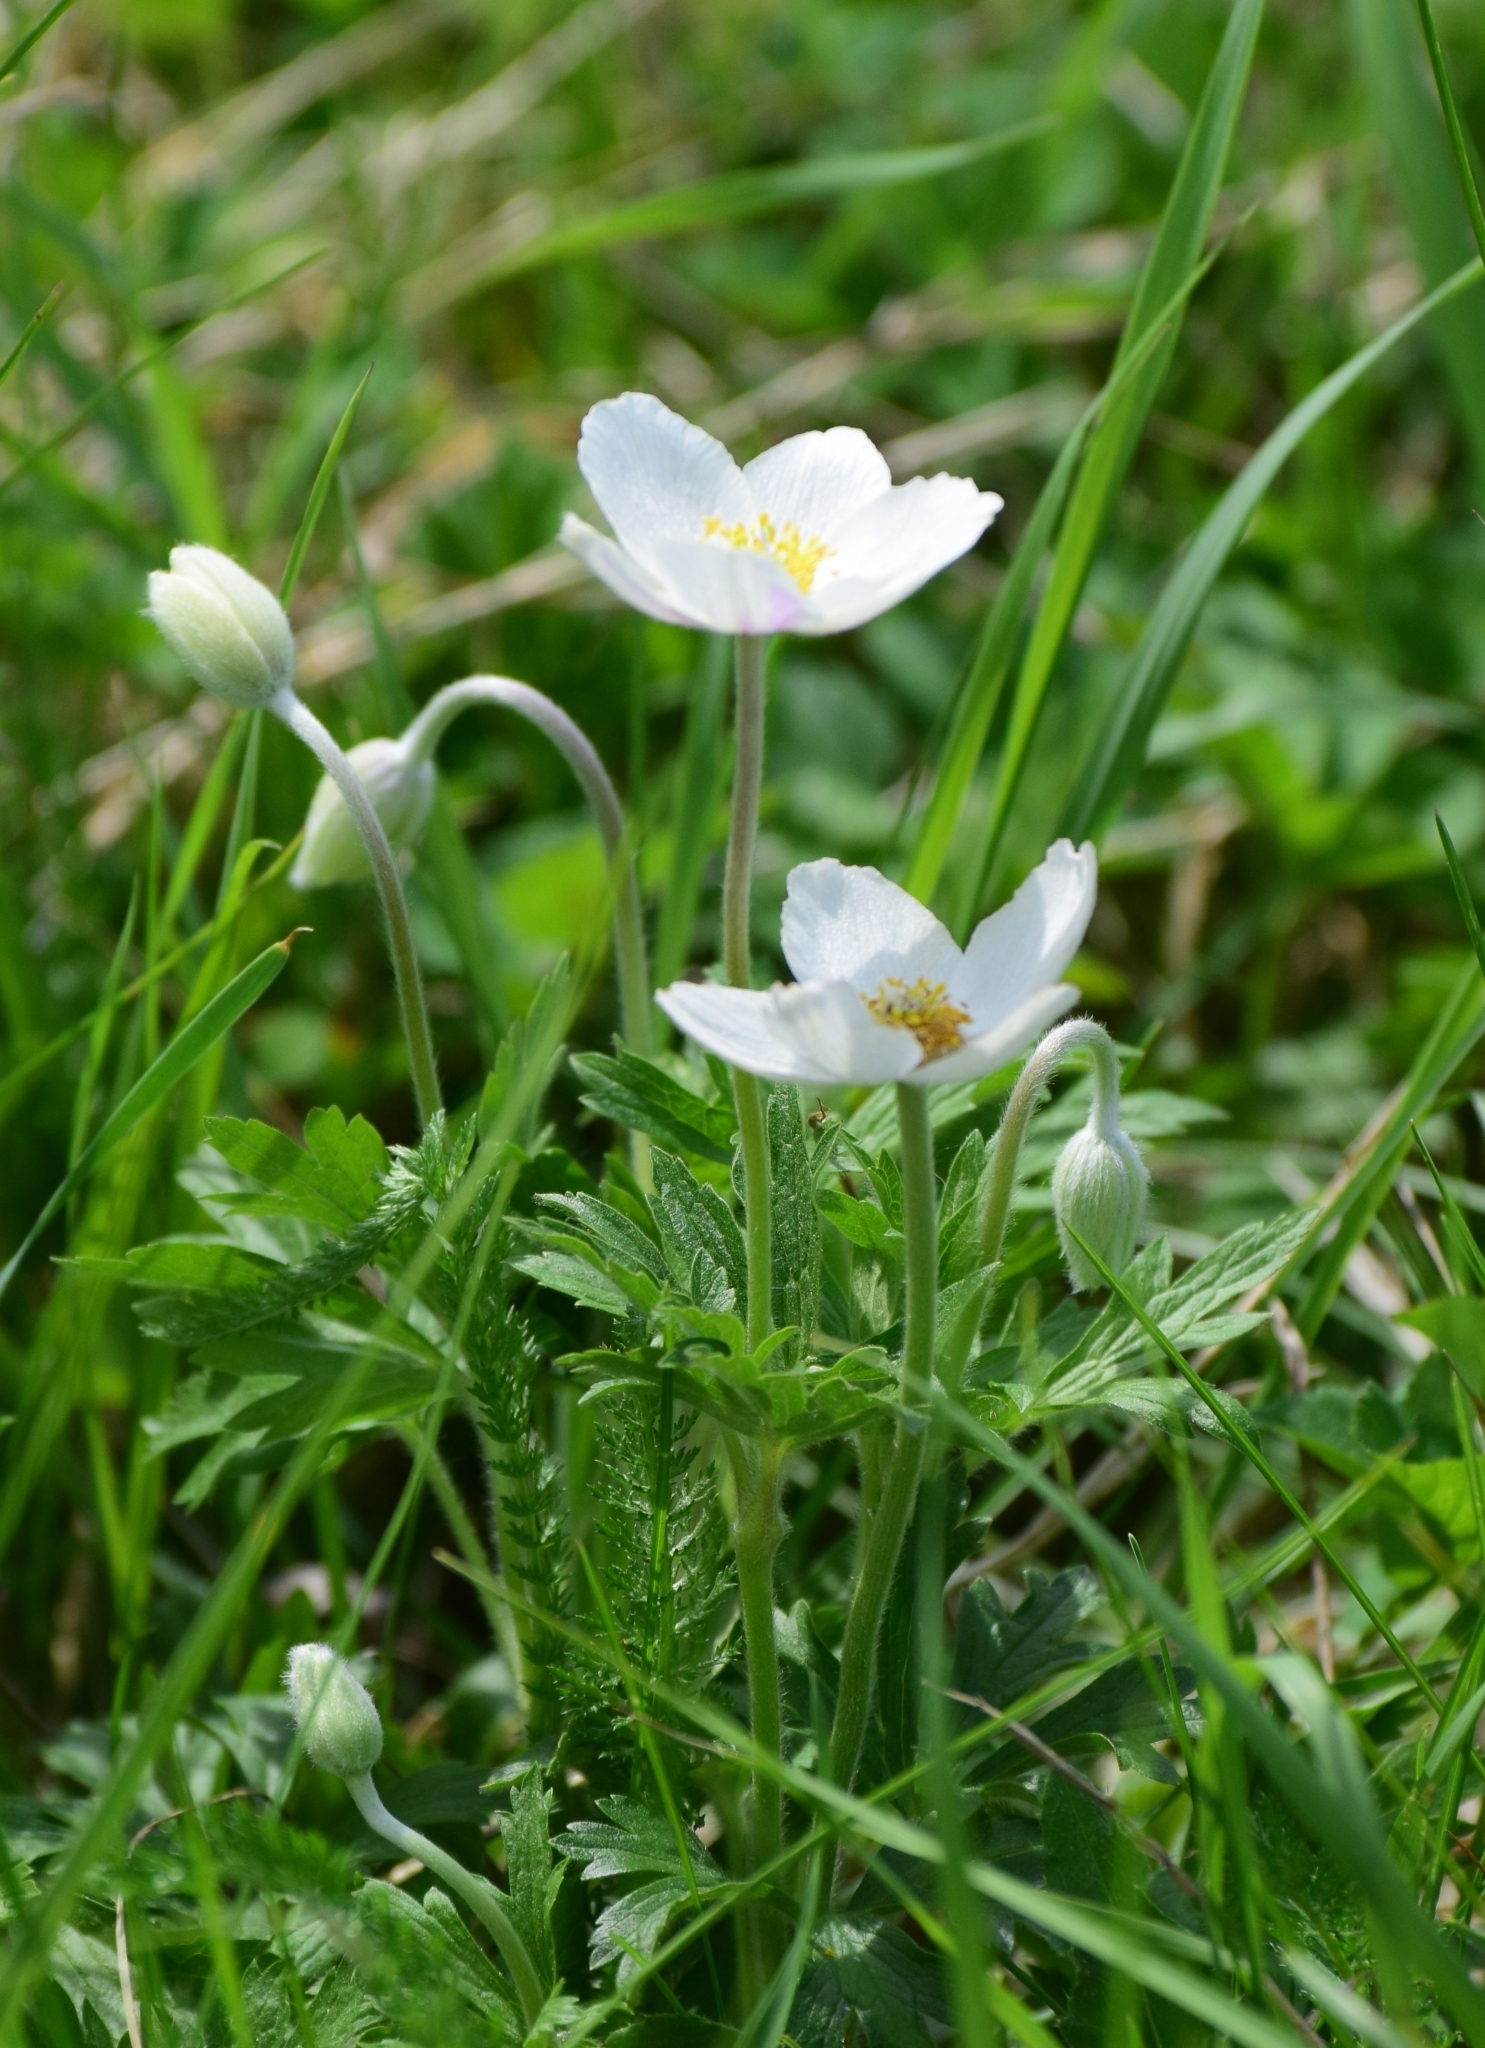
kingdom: Plantae
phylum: Tracheophyta
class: Magnoliopsida
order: Ranunculales
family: Ranunculaceae
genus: Anemone
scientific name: Anemone sylvestris
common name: Snowdrop anemone
